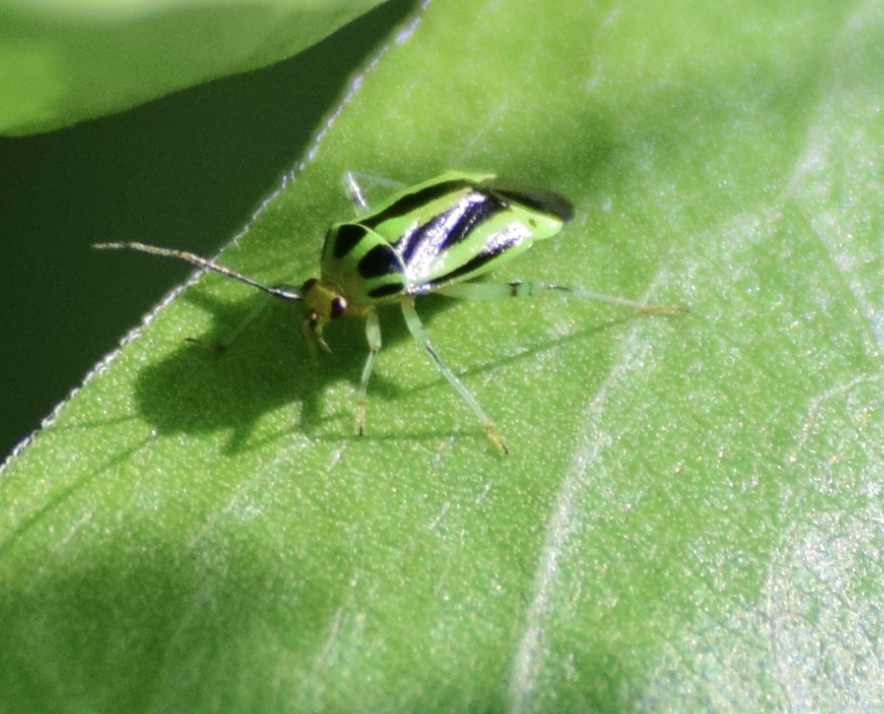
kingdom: Animalia
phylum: Arthropoda
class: Insecta
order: Hemiptera
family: Miridae
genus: Poecilocapsus
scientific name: Poecilocapsus lineatus
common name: Four-lined plant bug
